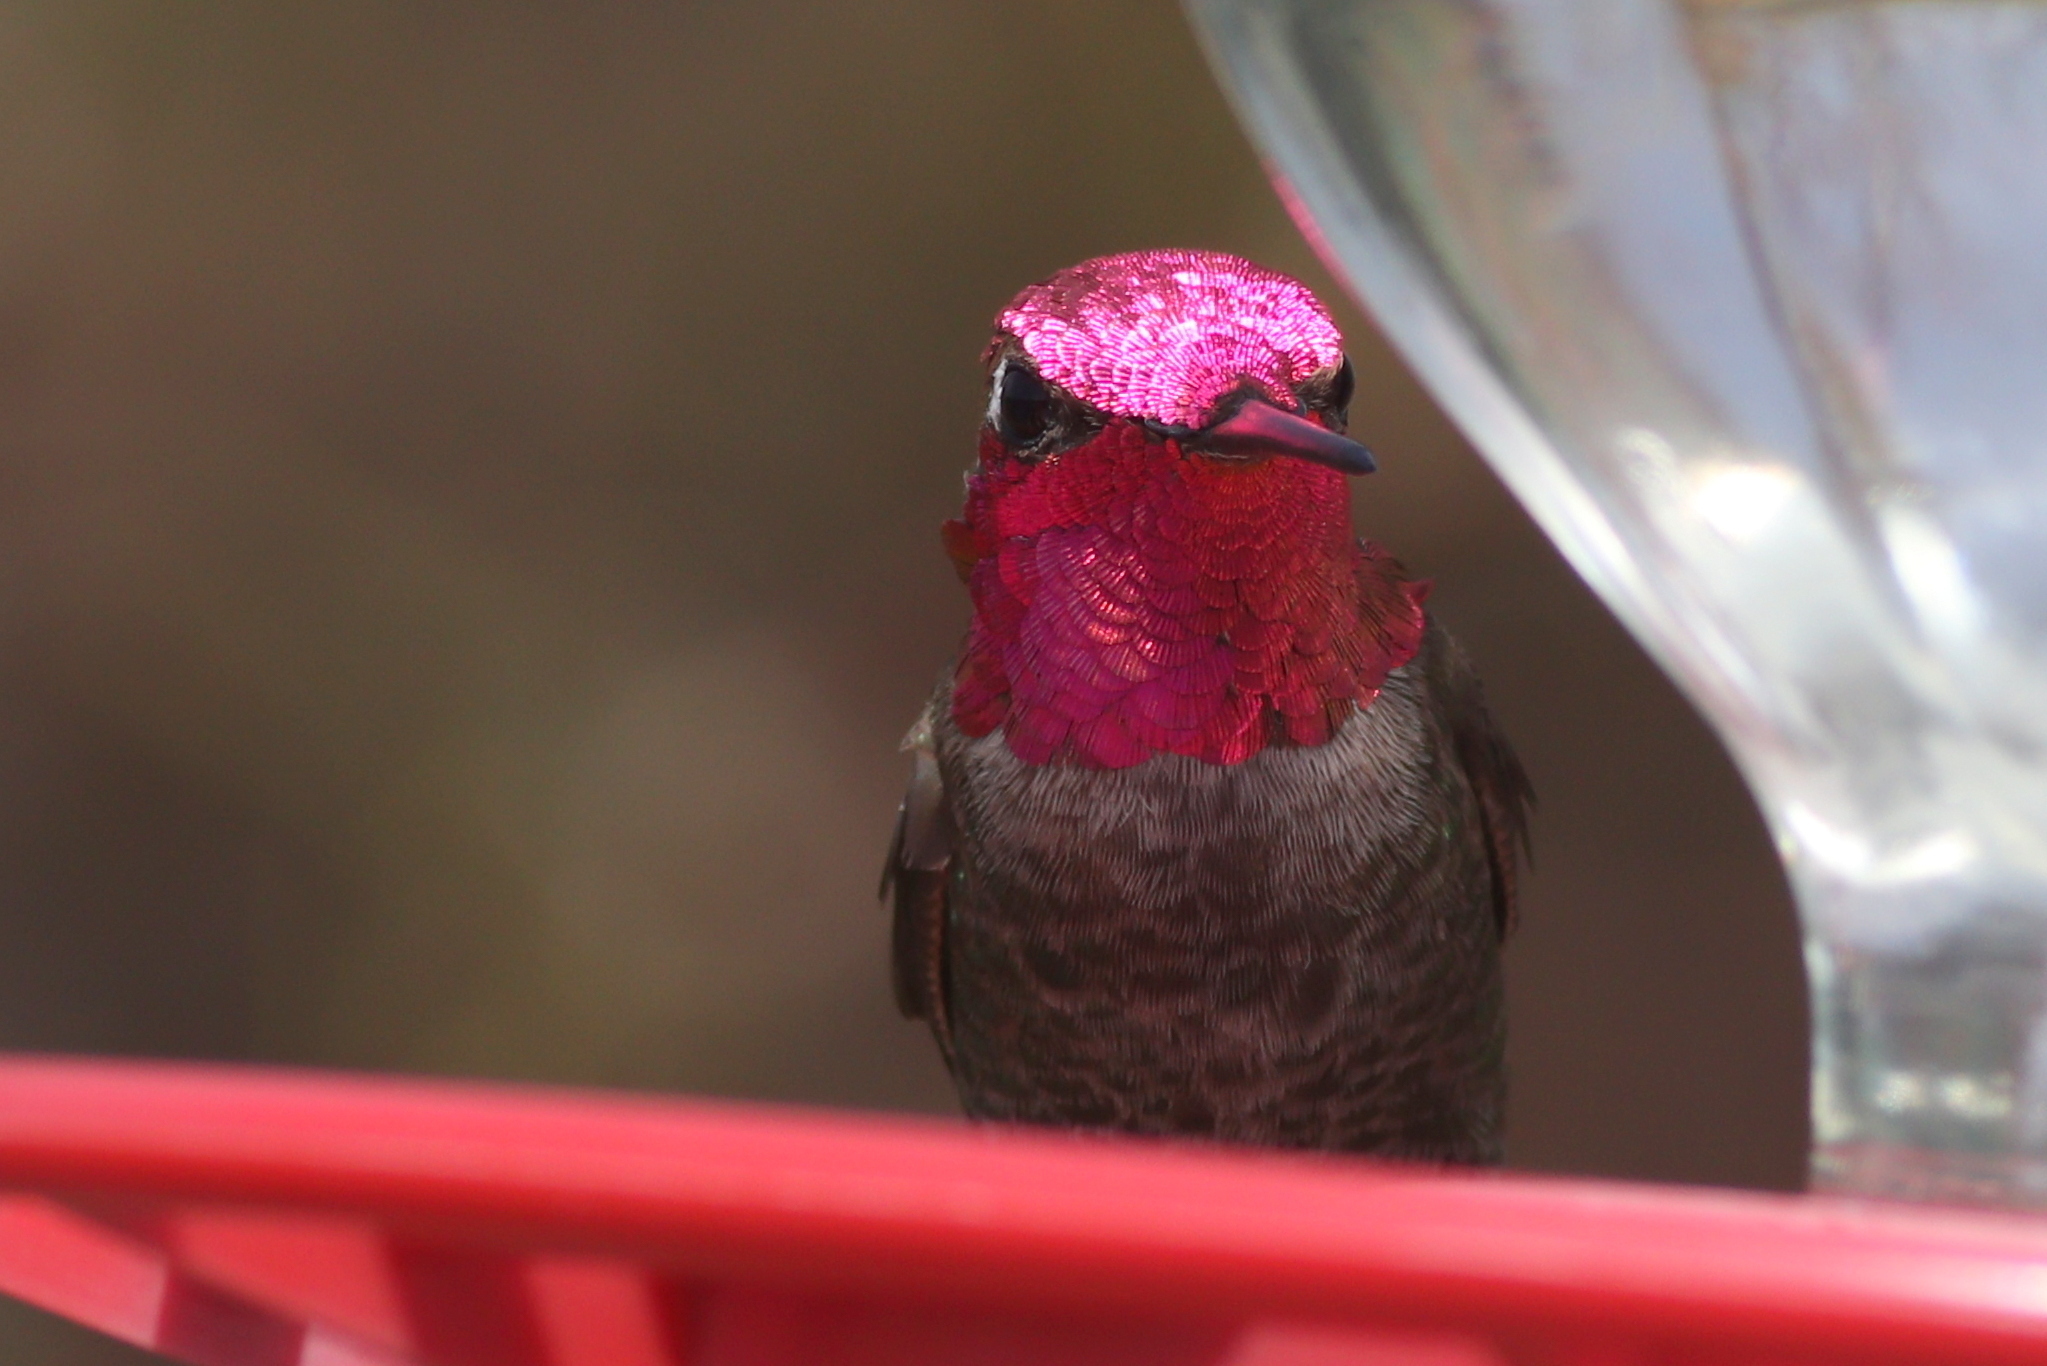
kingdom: Animalia
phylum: Chordata
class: Aves
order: Apodiformes
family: Trochilidae
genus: Calypte
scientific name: Calypte anna
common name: Anna's hummingbird
